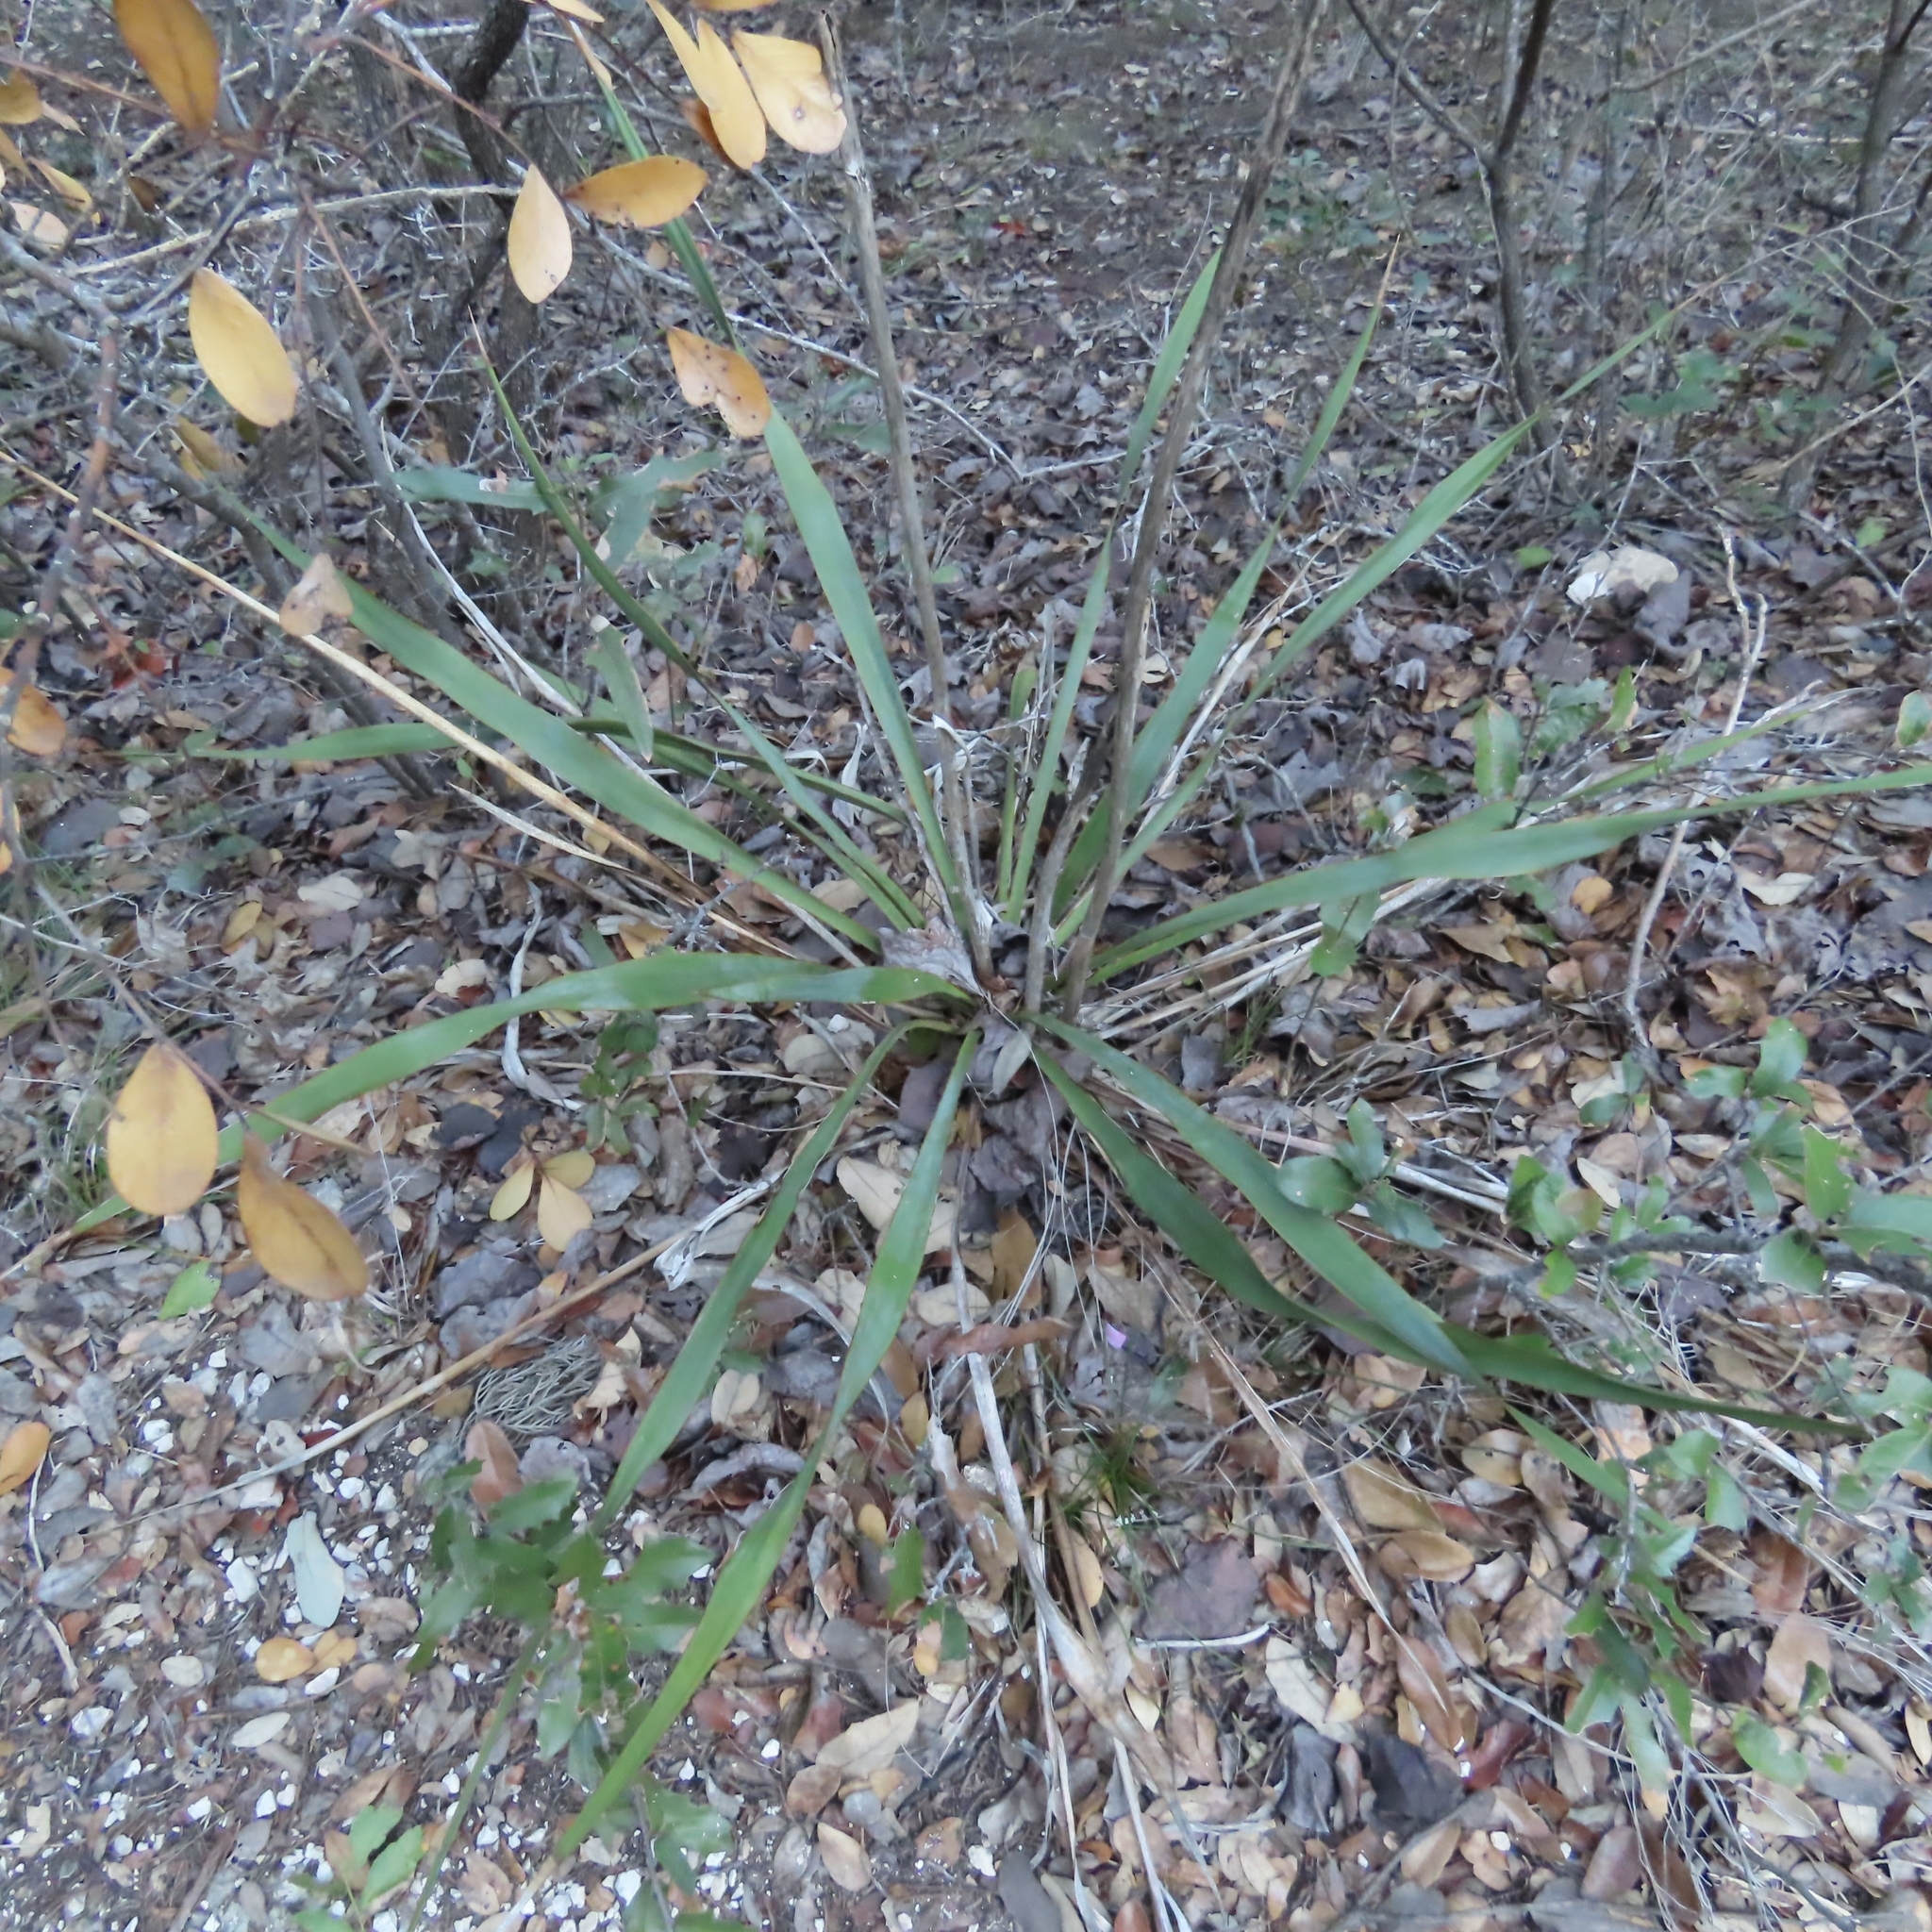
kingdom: Plantae
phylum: Tracheophyta
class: Liliopsida
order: Asparagales
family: Asparagaceae
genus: Yucca
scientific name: Yucca rupicola
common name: Twisted-leaf spanish-dagger
